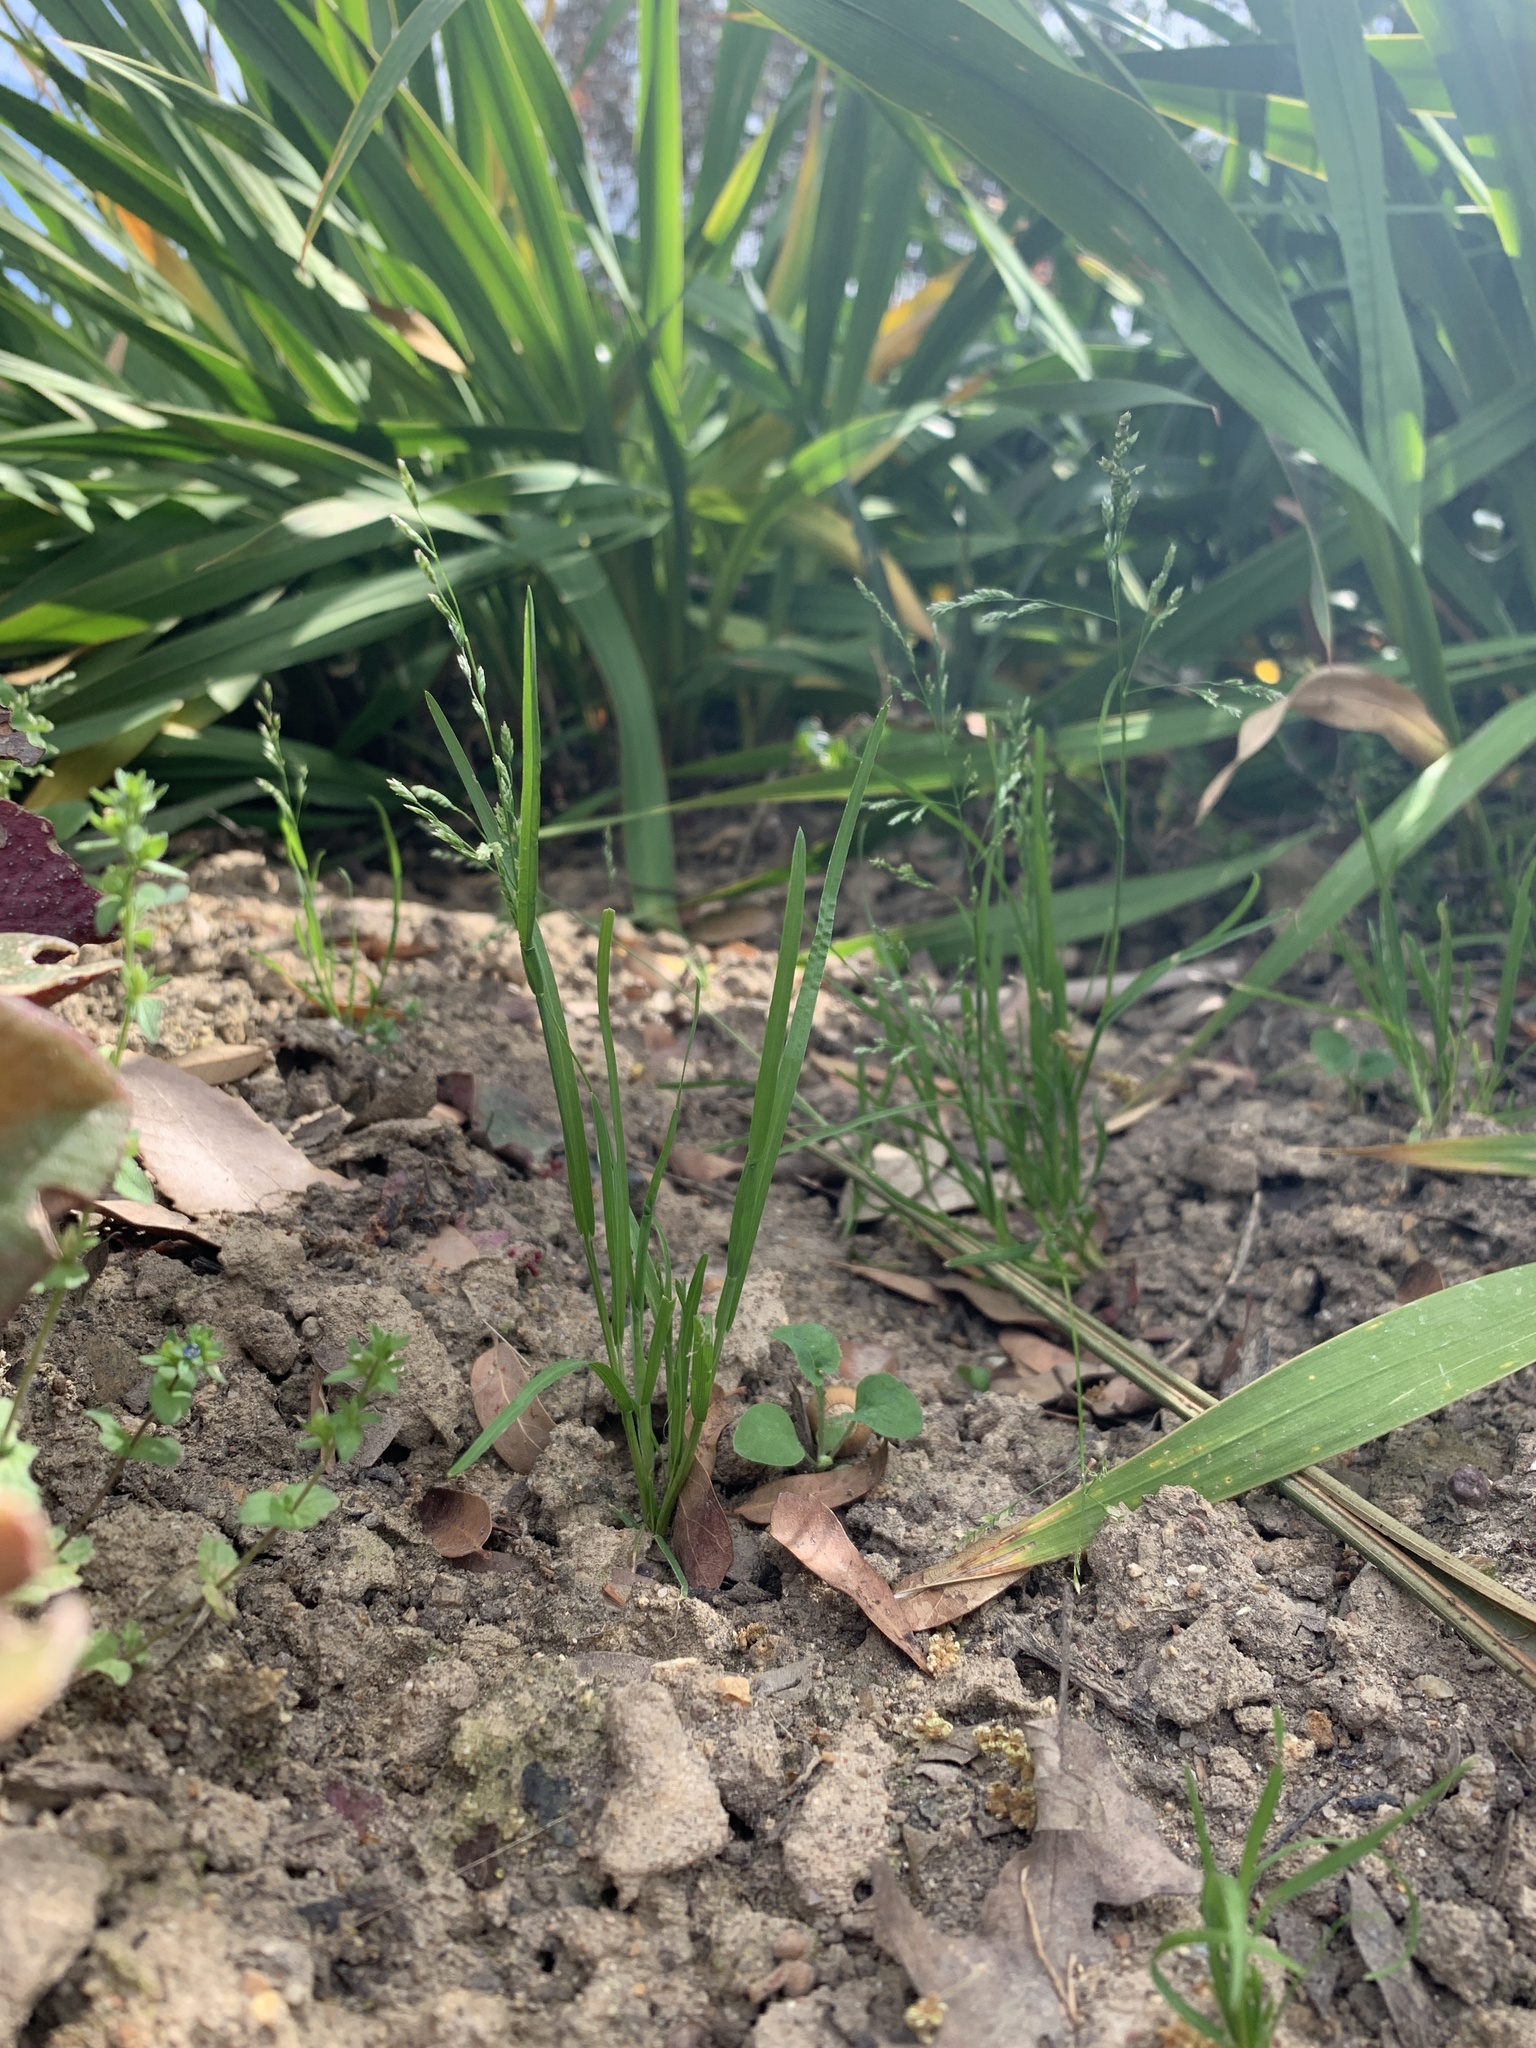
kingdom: Plantae
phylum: Tracheophyta
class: Liliopsida
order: Poales
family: Poaceae
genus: Poa
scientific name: Poa annua
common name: Annual bluegrass
